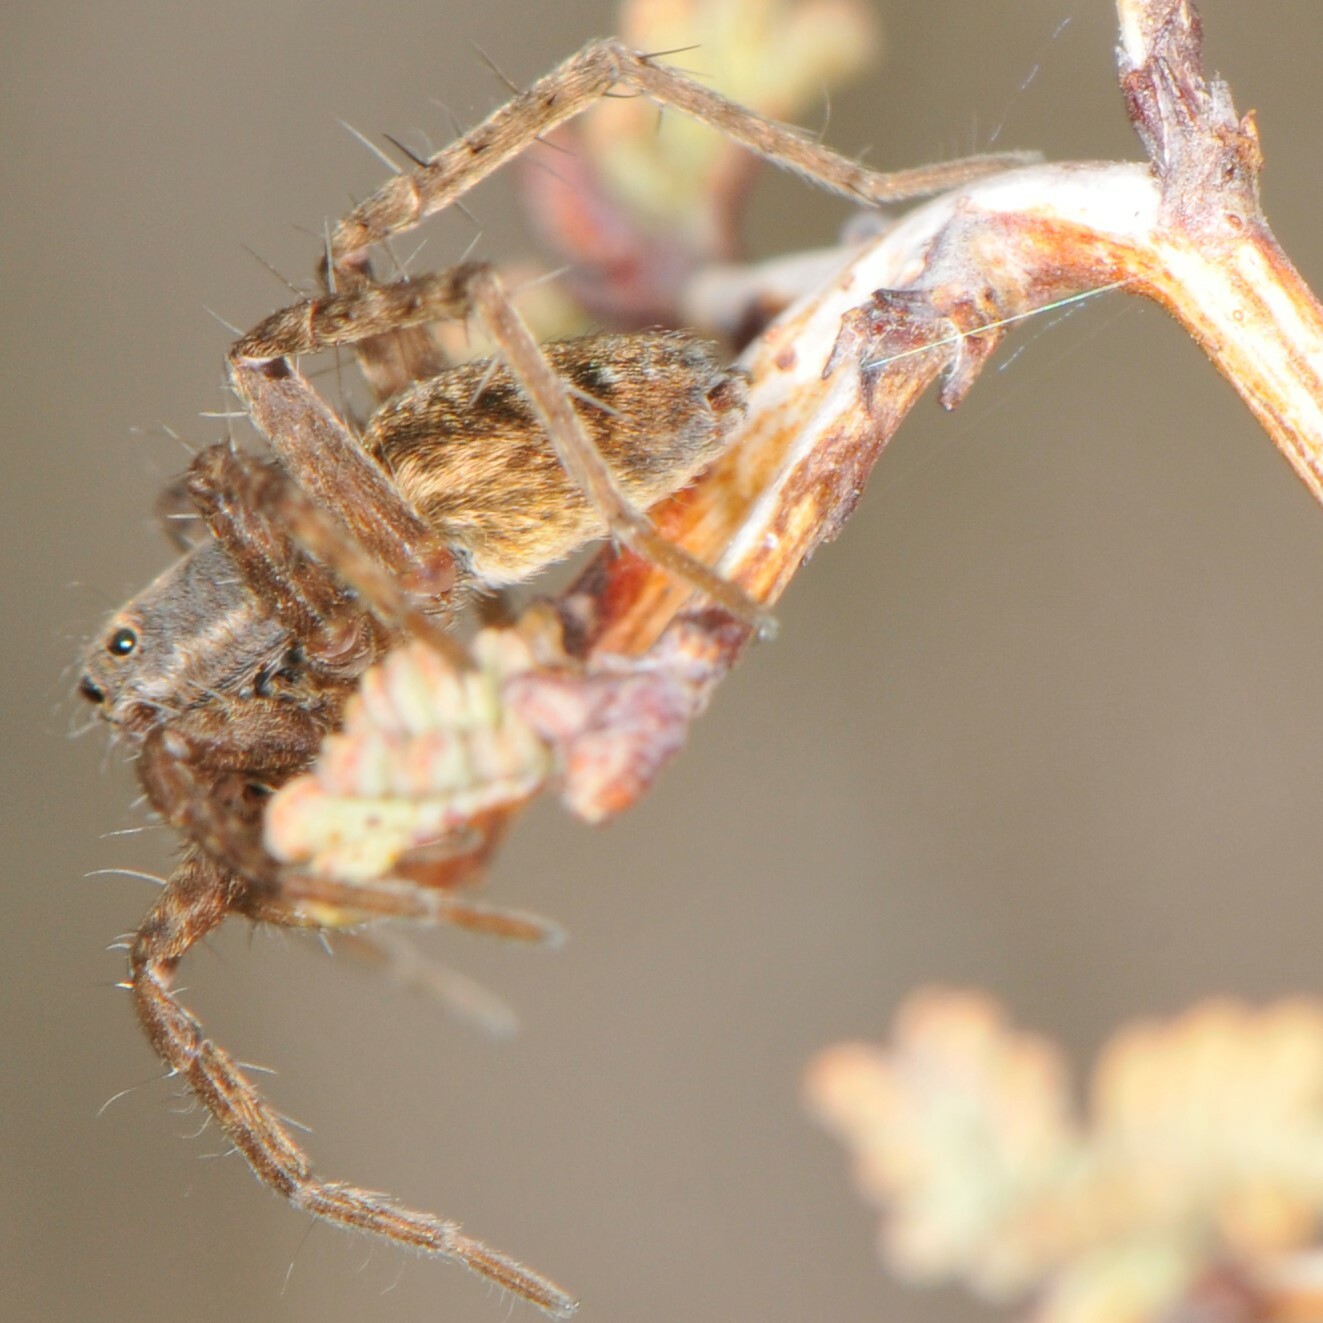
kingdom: Animalia
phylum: Arthropoda
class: Arachnida
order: Araneae
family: Lycosidae
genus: Pardosa
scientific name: Pardosa
